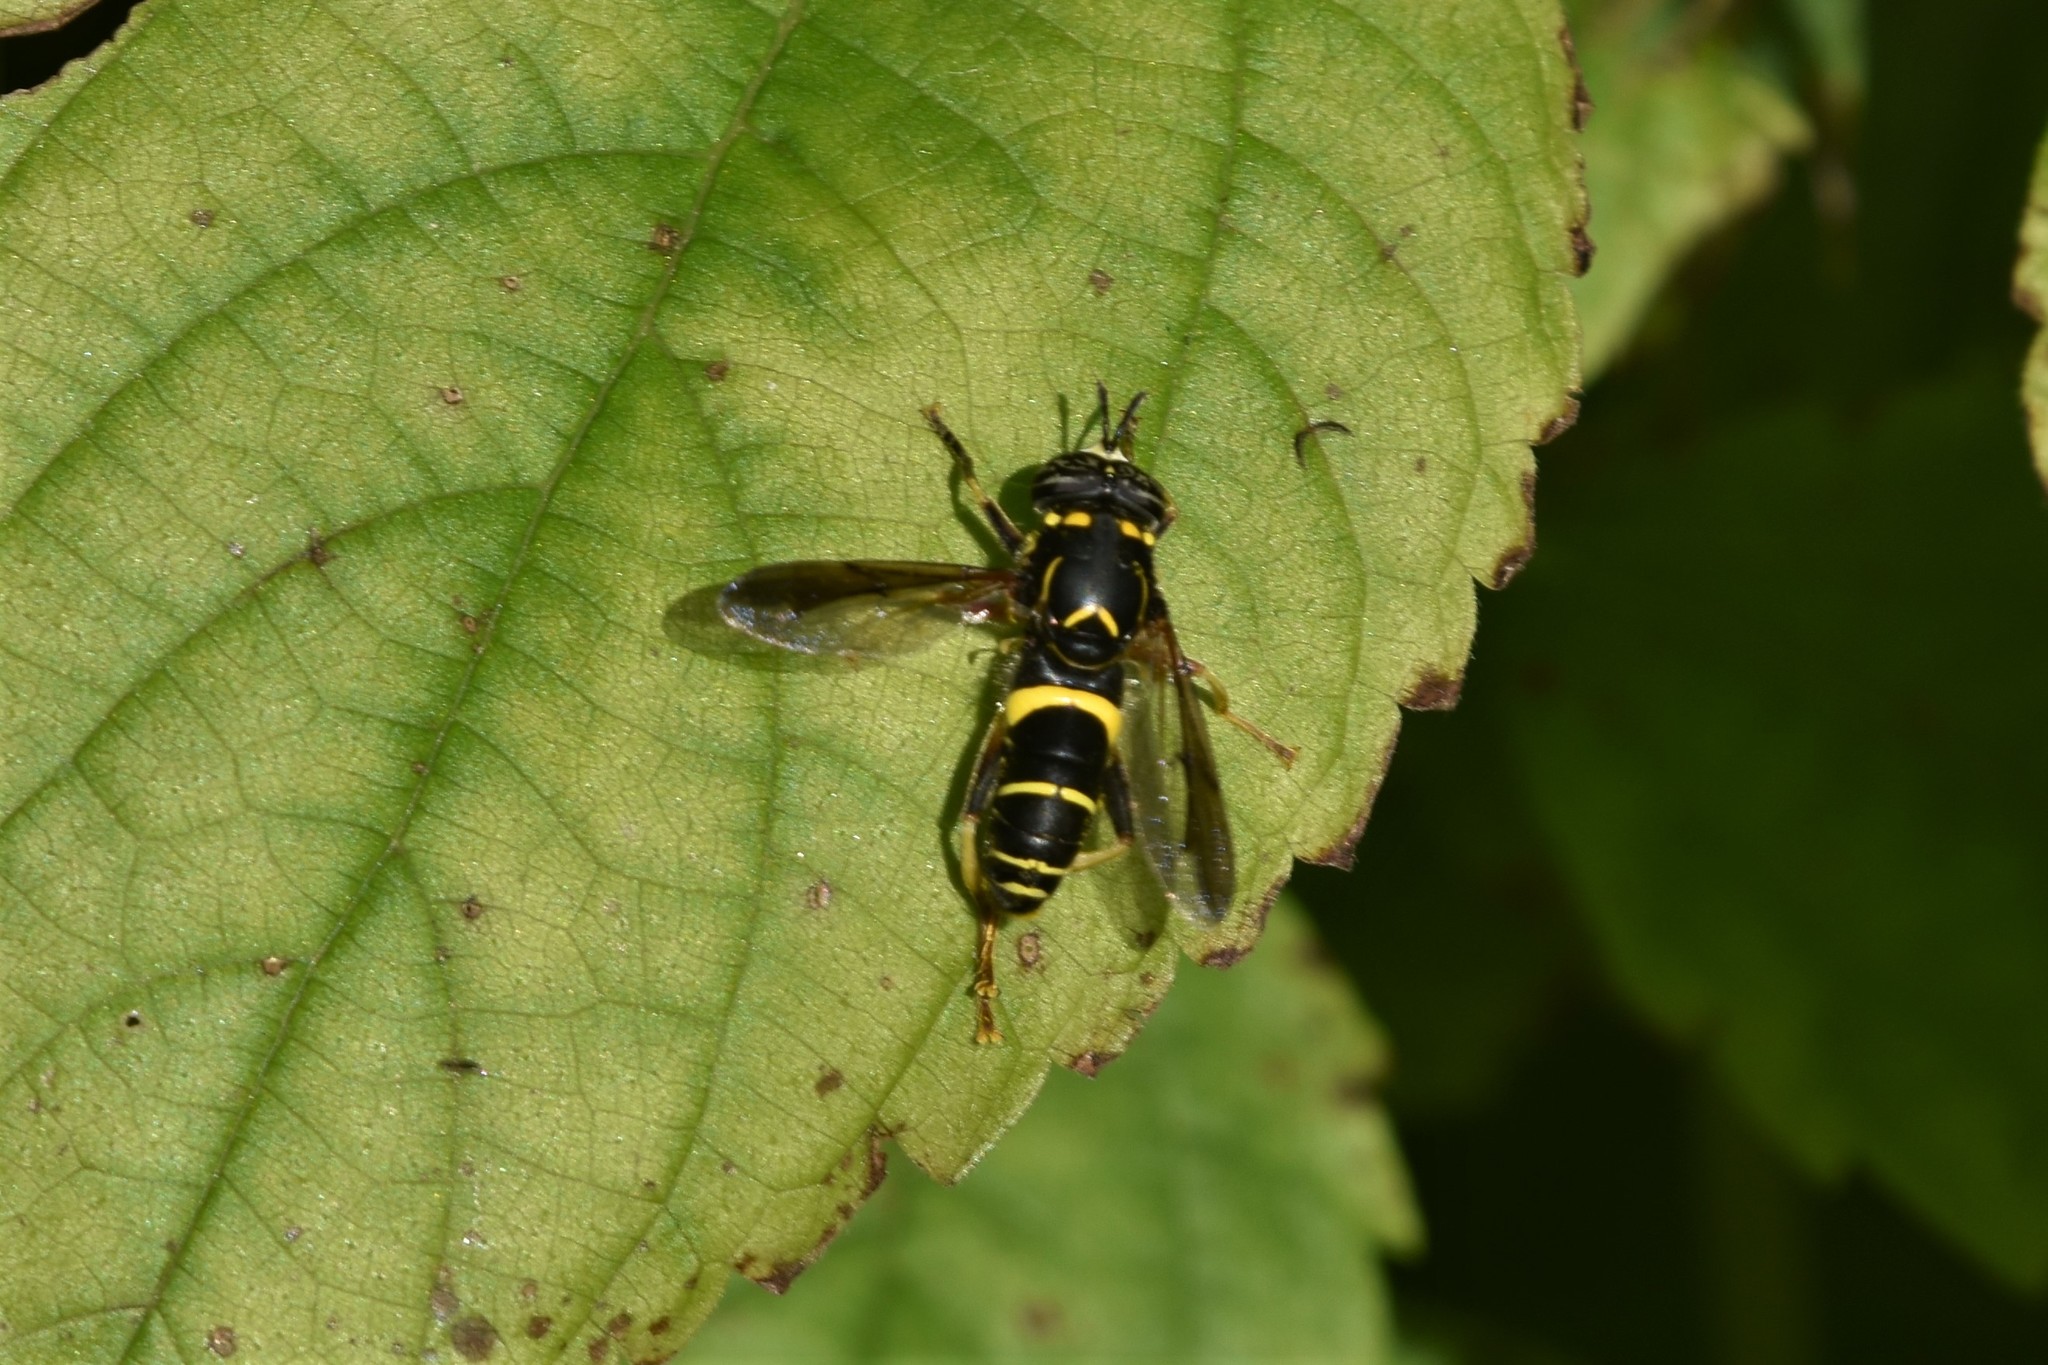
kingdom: Animalia
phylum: Arthropoda
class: Insecta
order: Diptera
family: Syrphidae
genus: Spilomyia
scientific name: Spilomyia sayi
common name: Four-lined hornet fly
